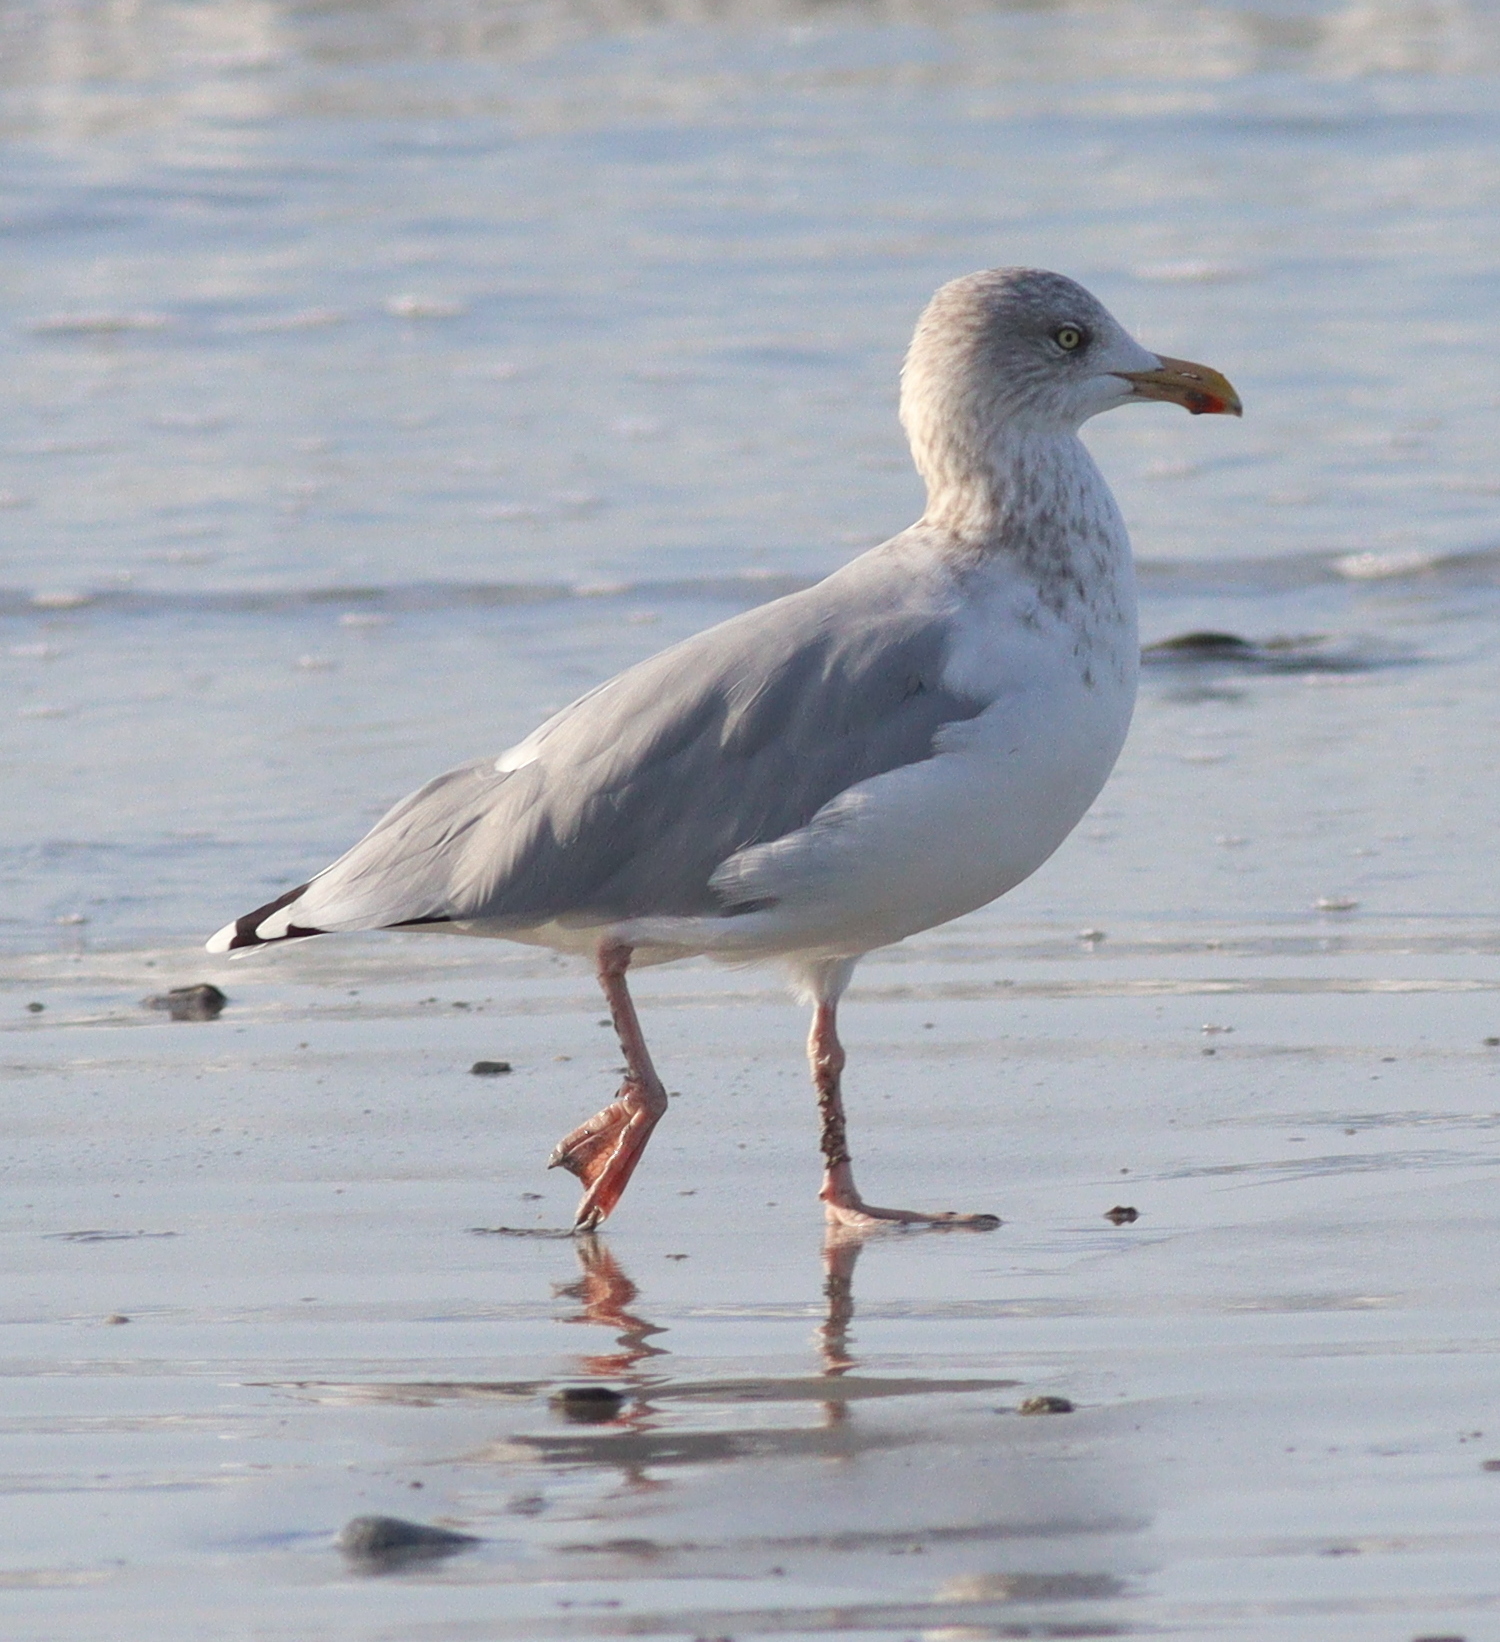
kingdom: Animalia
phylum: Chordata
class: Aves
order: Charadriiformes
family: Laridae
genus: Larus
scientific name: Larus argentatus
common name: Herring gull
